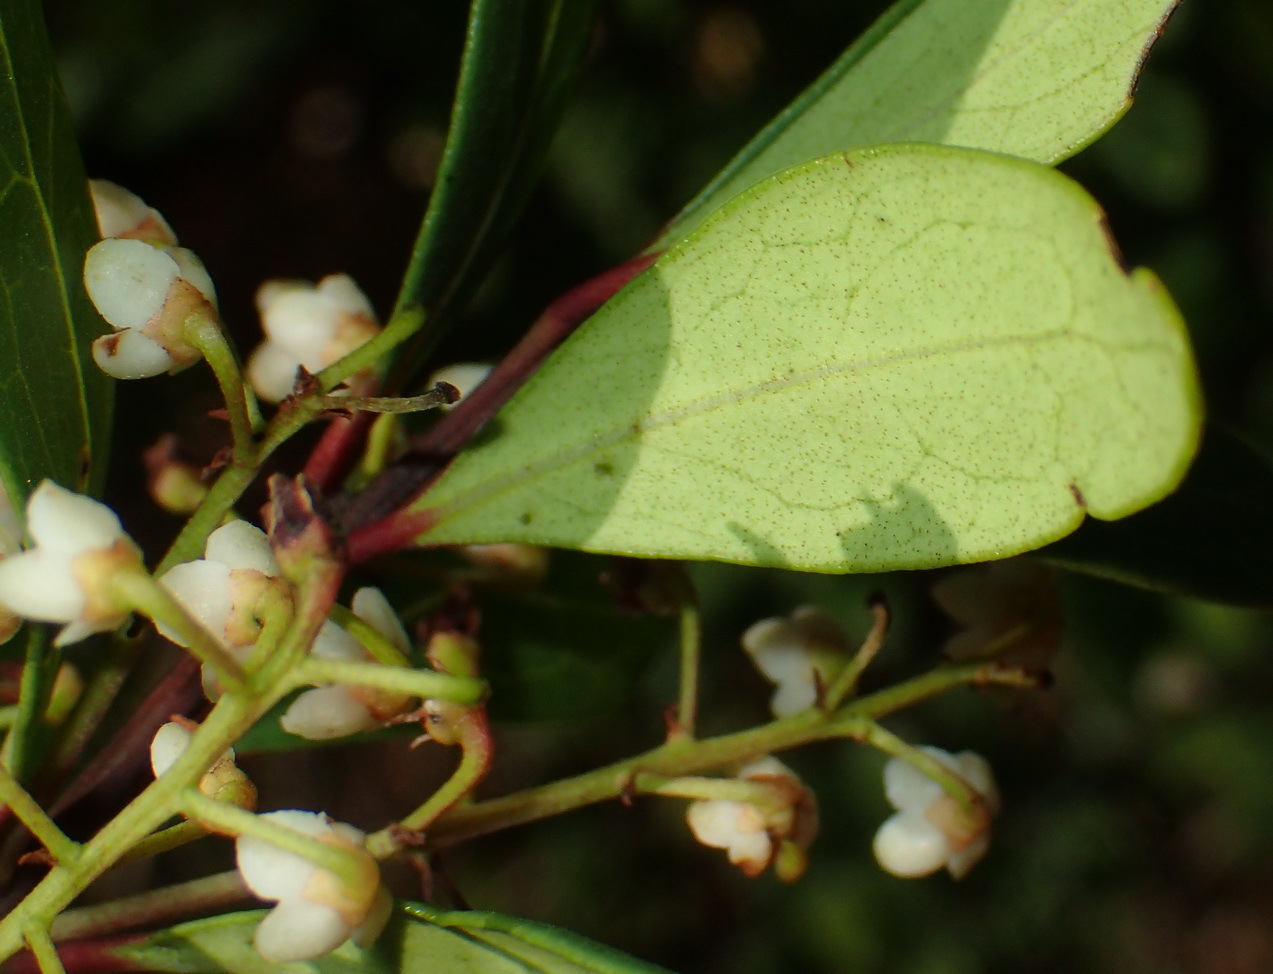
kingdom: Plantae
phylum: Tracheophyta
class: Magnoliopsida
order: Ericales
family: Ebenaceae
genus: Euclea
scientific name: Euclea racemosa
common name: Dune guarri
